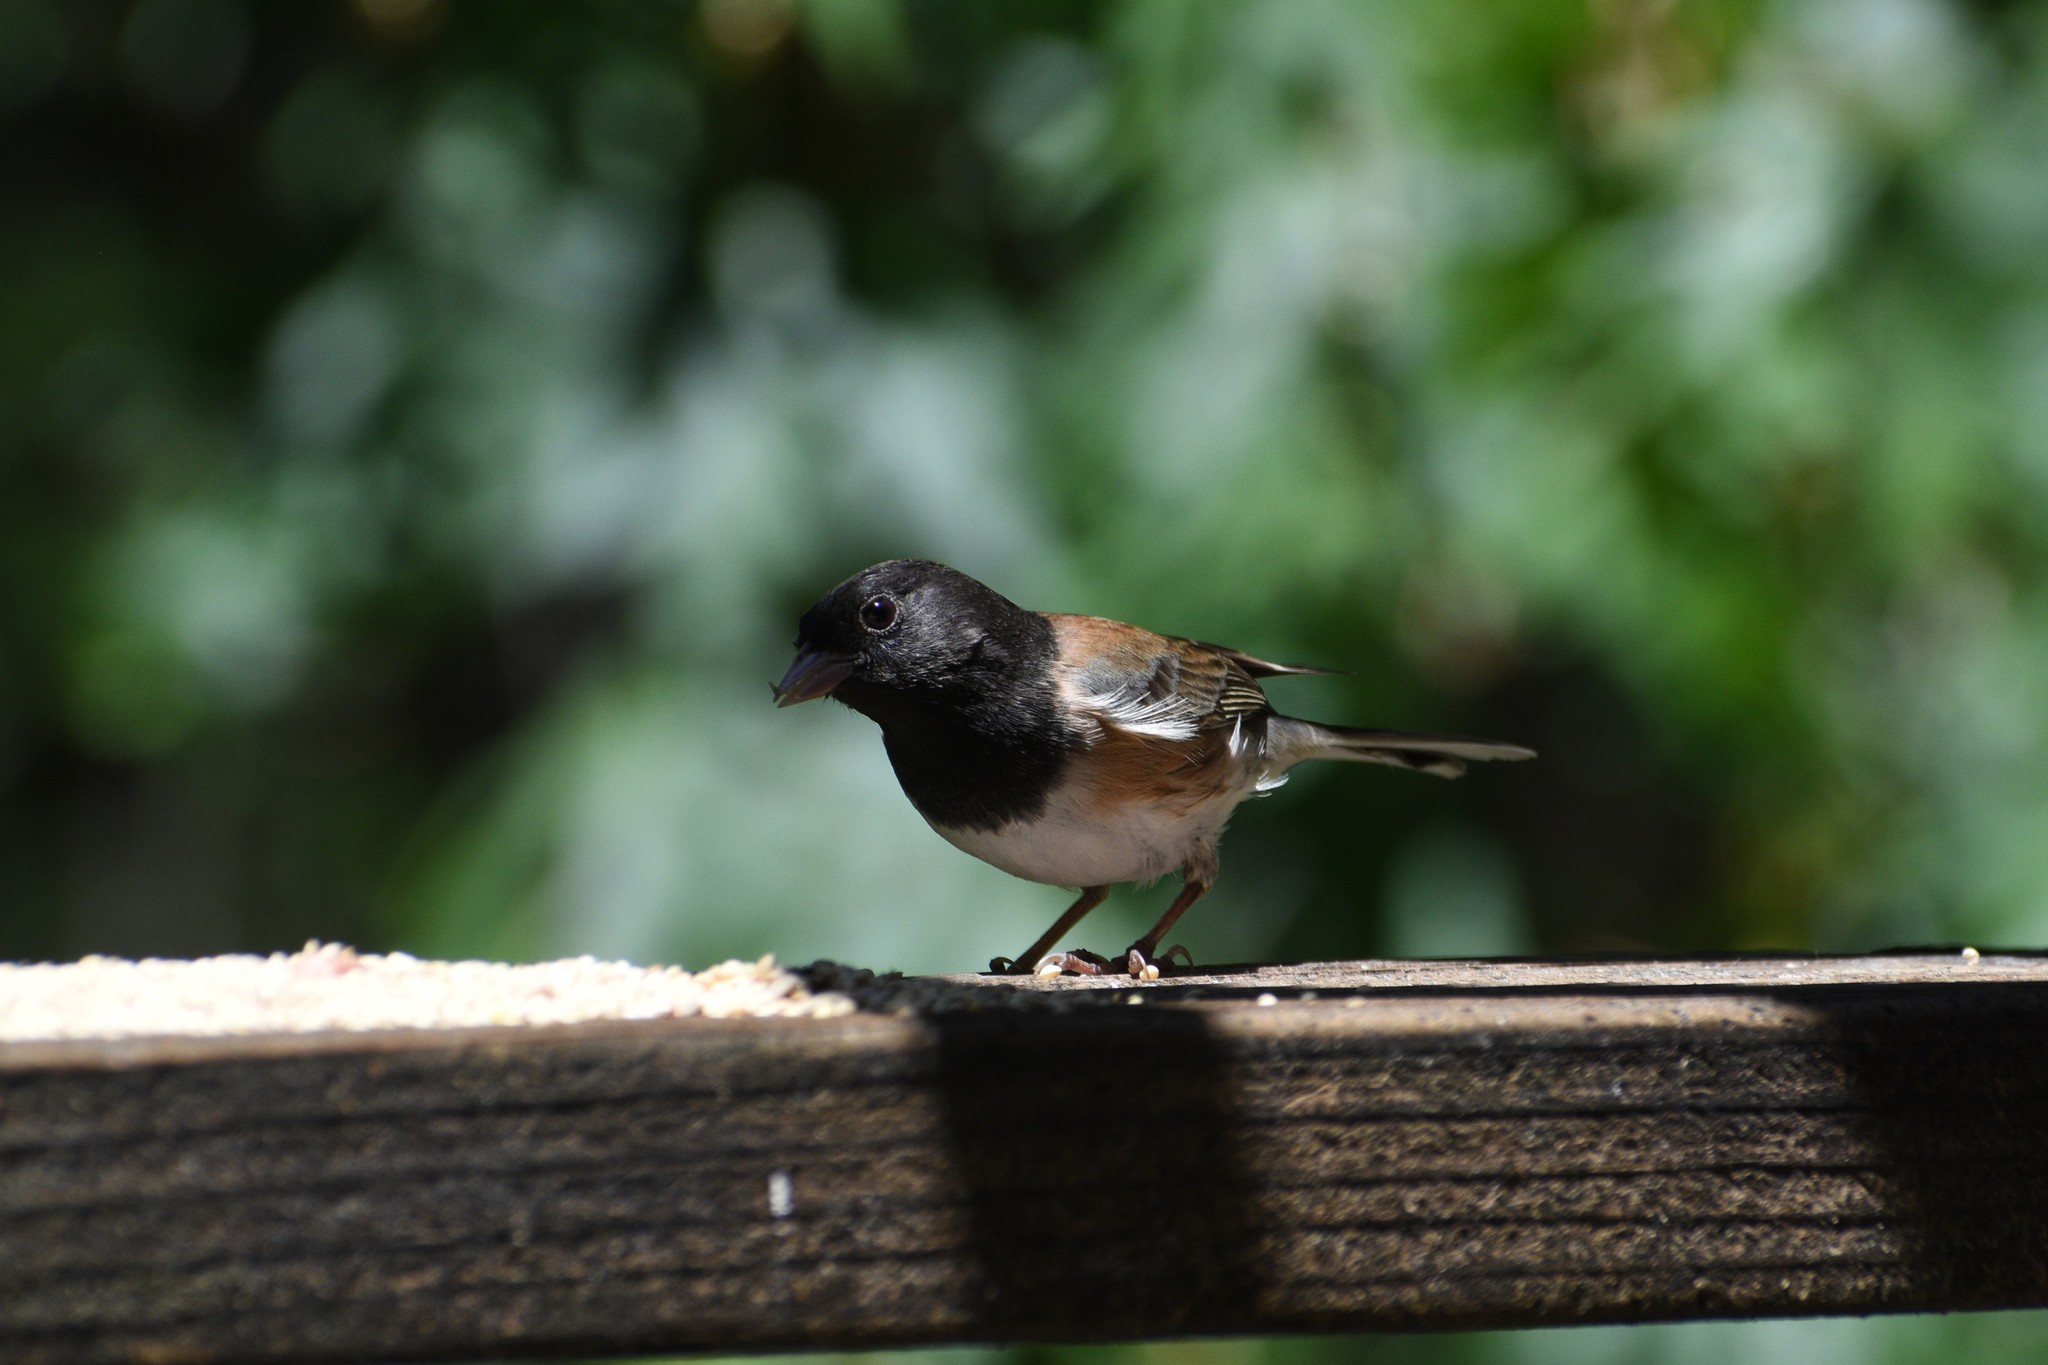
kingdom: Animalia
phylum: Chordata
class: Aves
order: Passeriformes
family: Passerellidae
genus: Junco
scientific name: Junco hyemalis
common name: Dark-eyed junco
